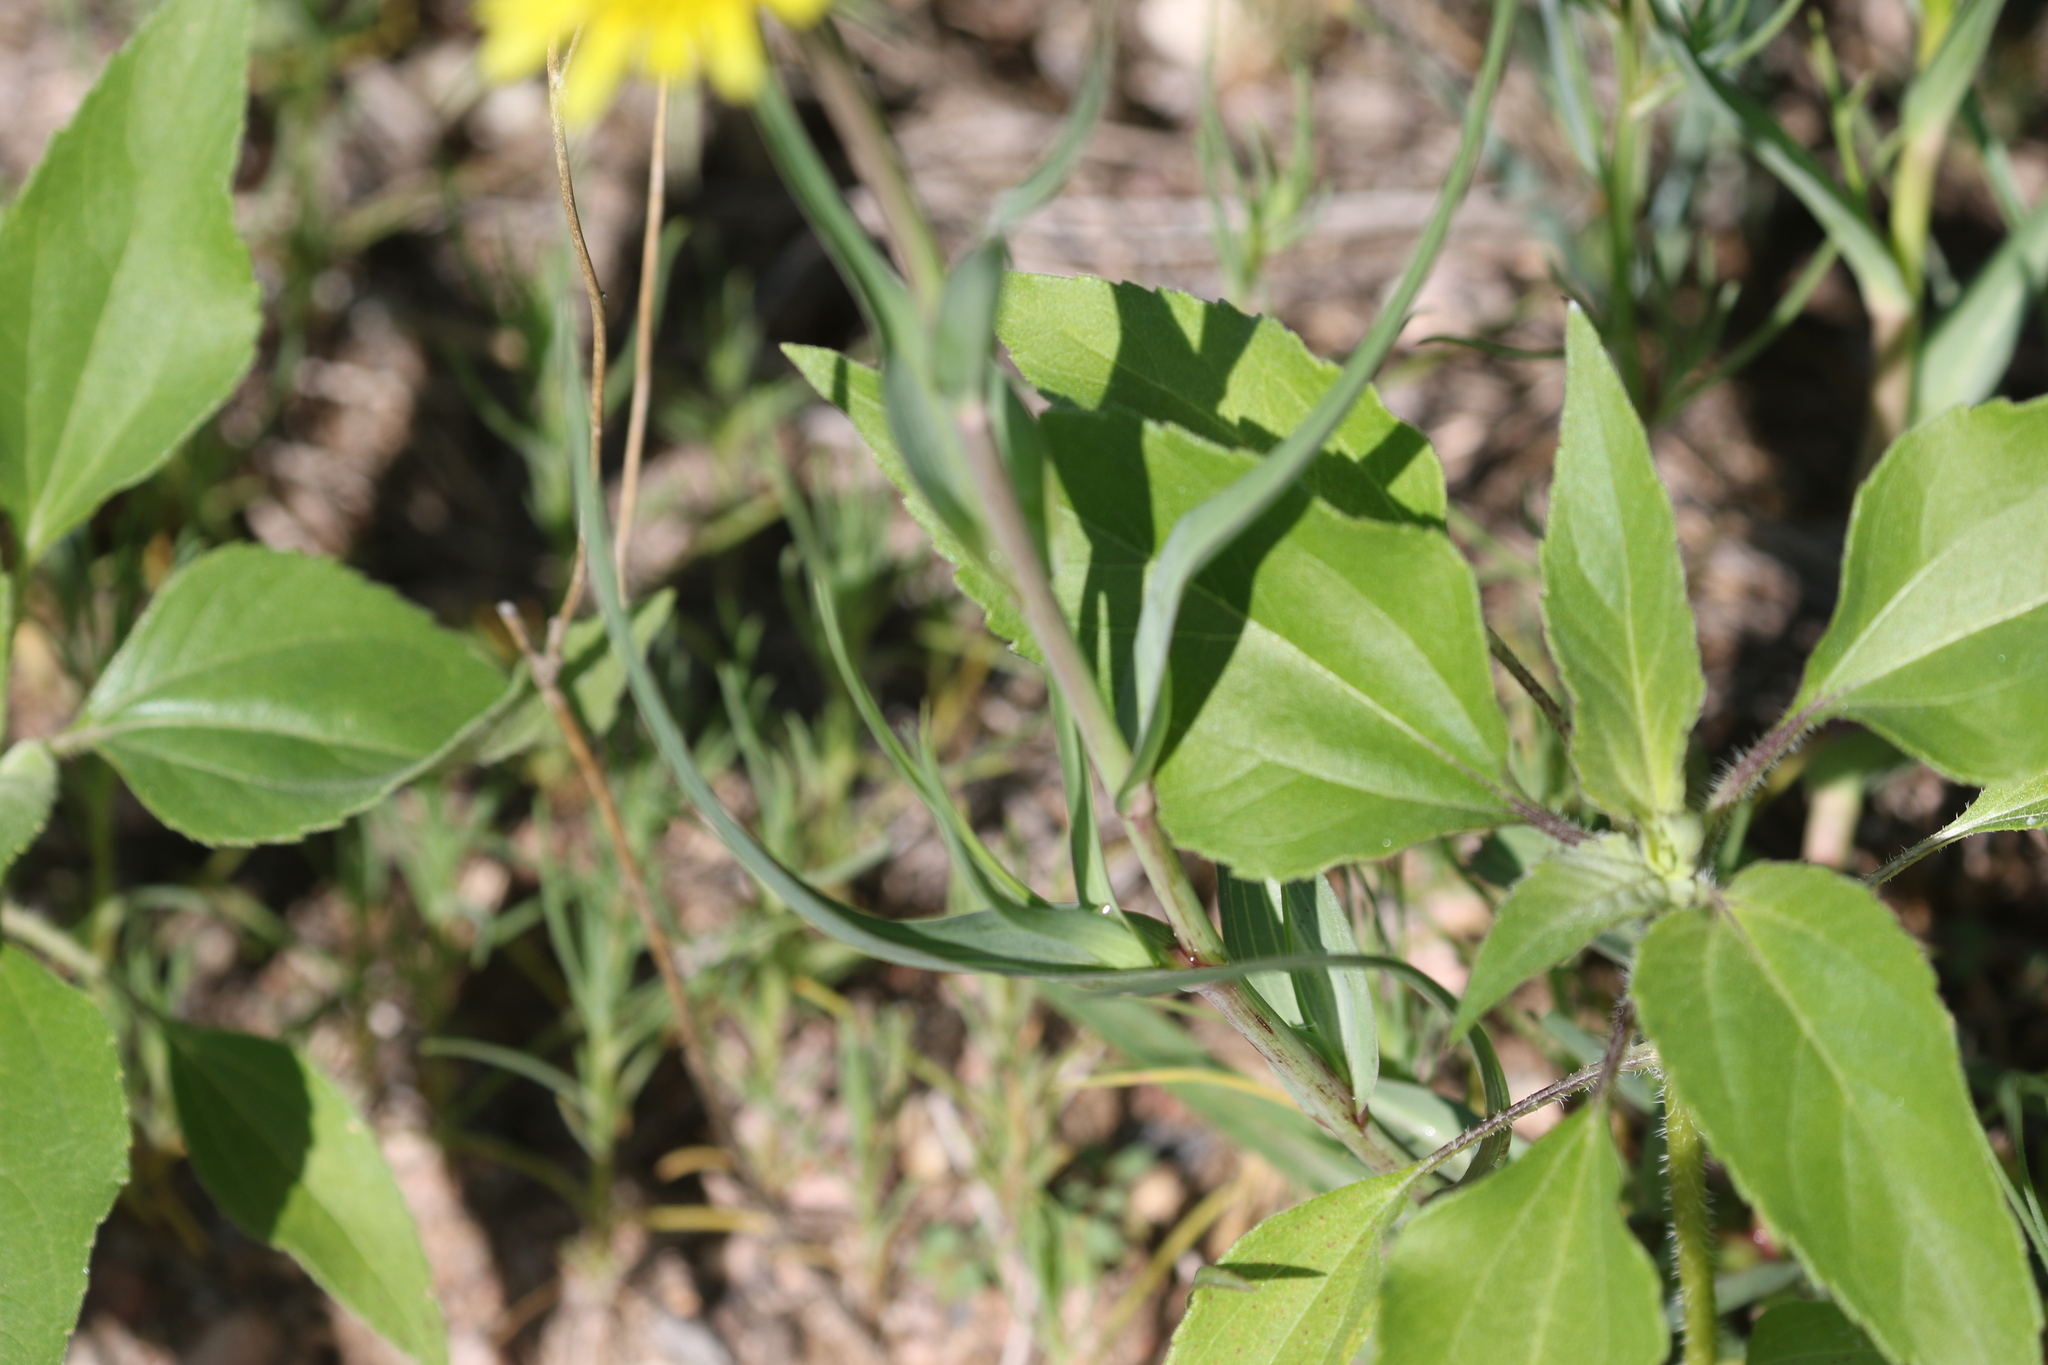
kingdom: Plantae
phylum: Tracheophyta
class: Magnoliopsida
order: Asterales
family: Asteraceae
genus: Tragopogon
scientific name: Tragopogon dubius
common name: Yellow salsify
